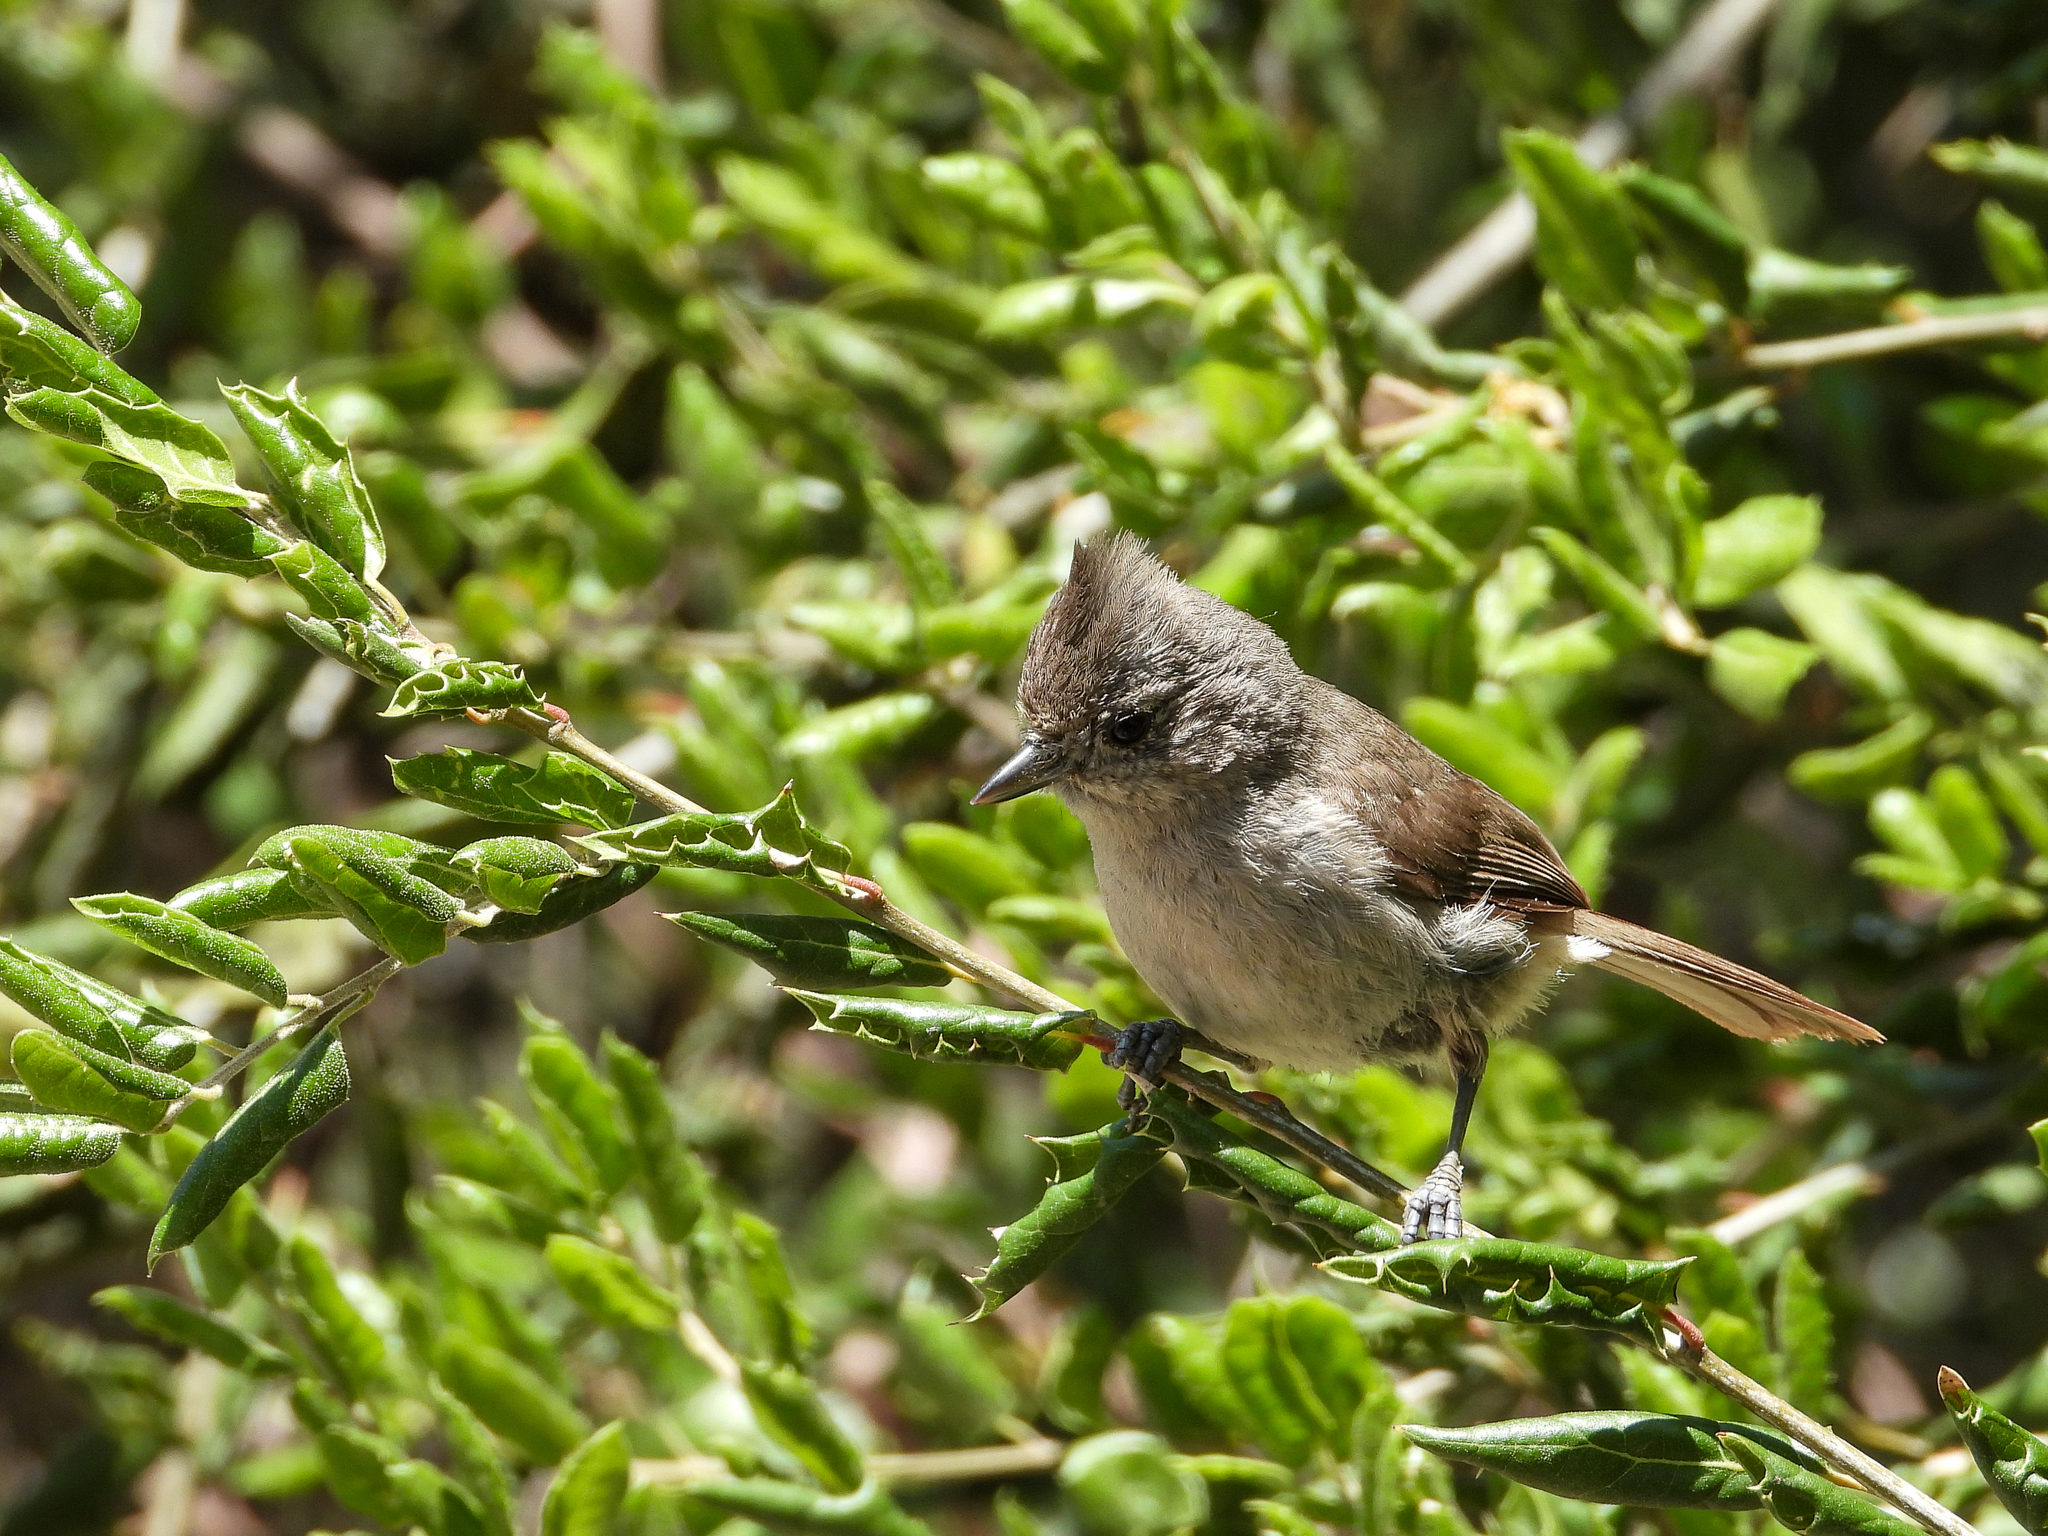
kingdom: Animalia
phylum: Chordata
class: Aves
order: Passeriformes
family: Paridae
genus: Baeolophus
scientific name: Baeolophus inornatus
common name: Oak titmouse
